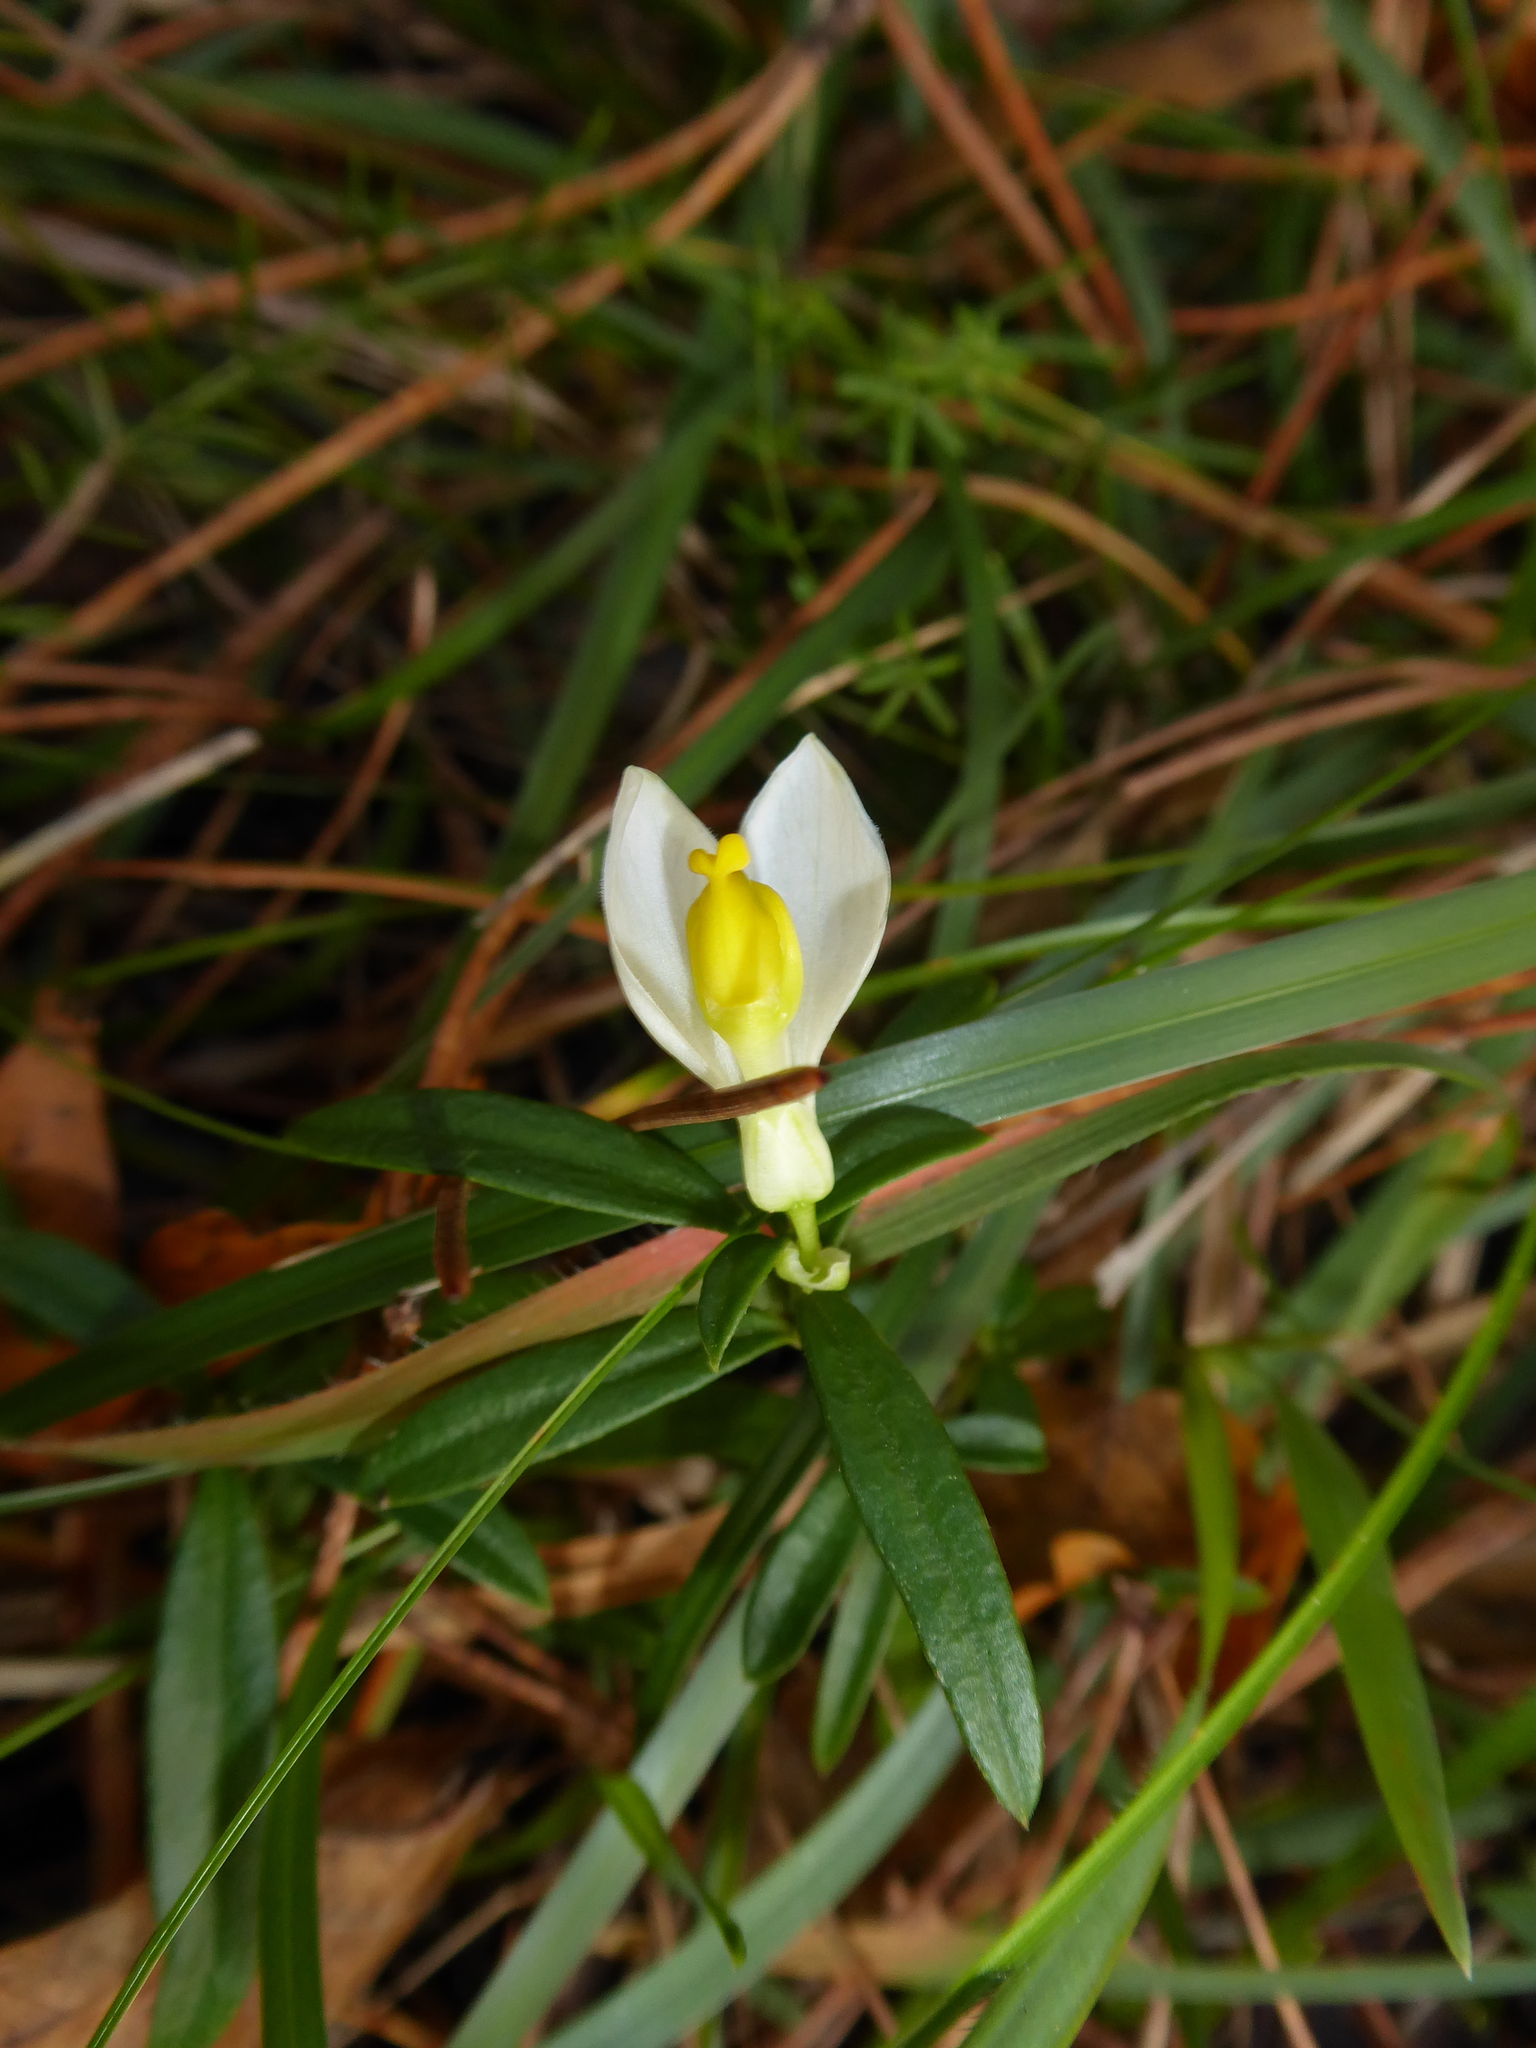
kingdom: Plantae
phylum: Tracheophyta
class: Magnoliopsida
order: Fabales
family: Polygalaceae
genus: Polygaloides
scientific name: Polygaloides chamaebuxus
